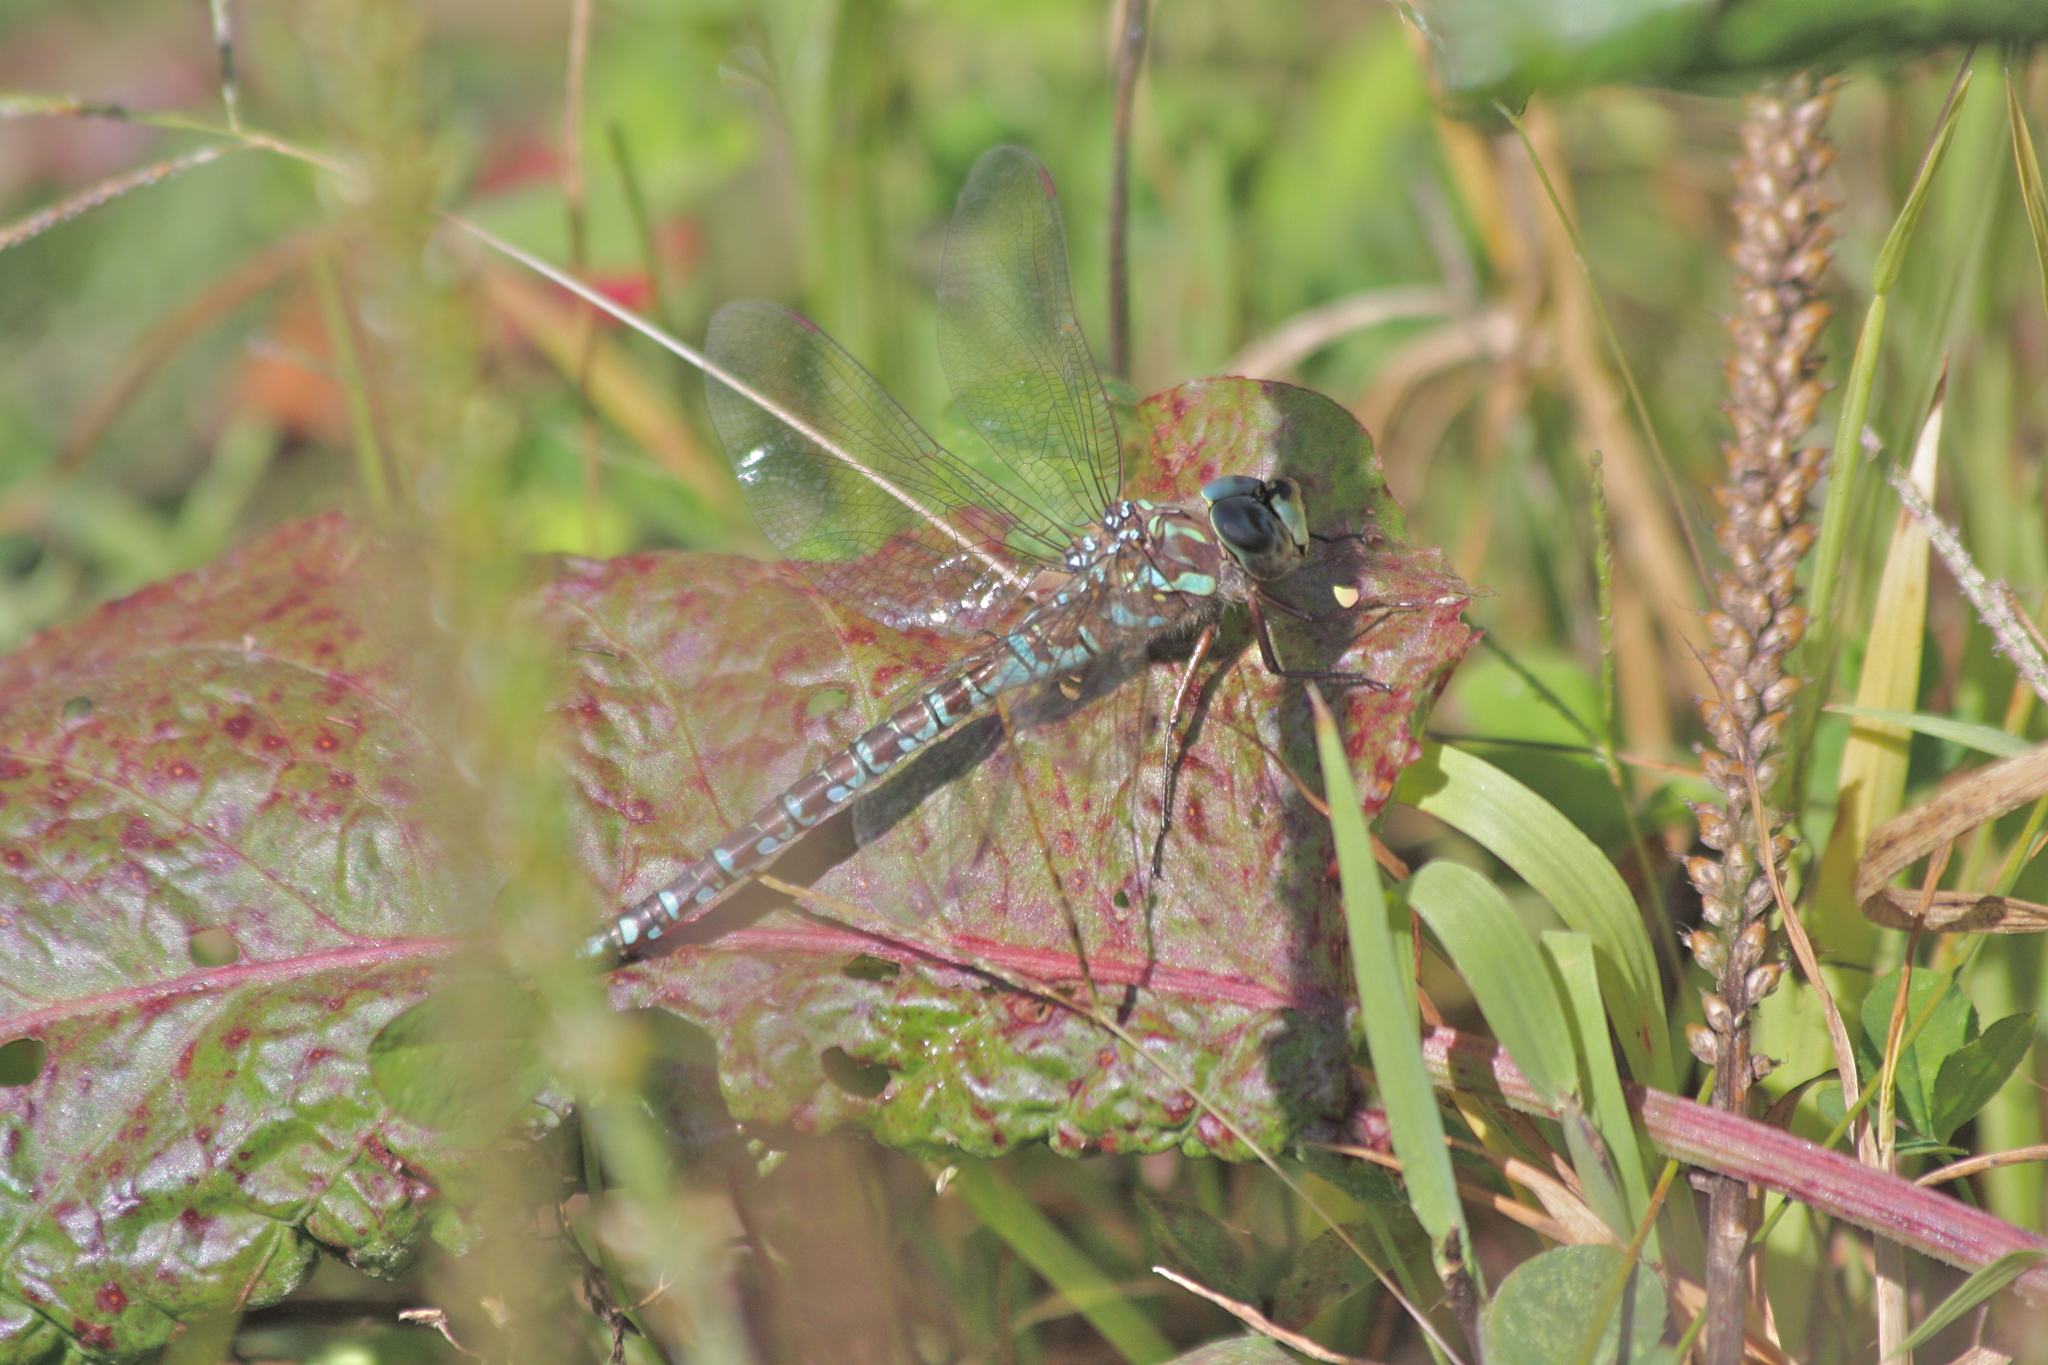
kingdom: Animalia
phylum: Arthropoda
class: Insecta
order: Odonata
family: Aeshnidae
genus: Aeshna
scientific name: Aeshna canadensis
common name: Canada darner
